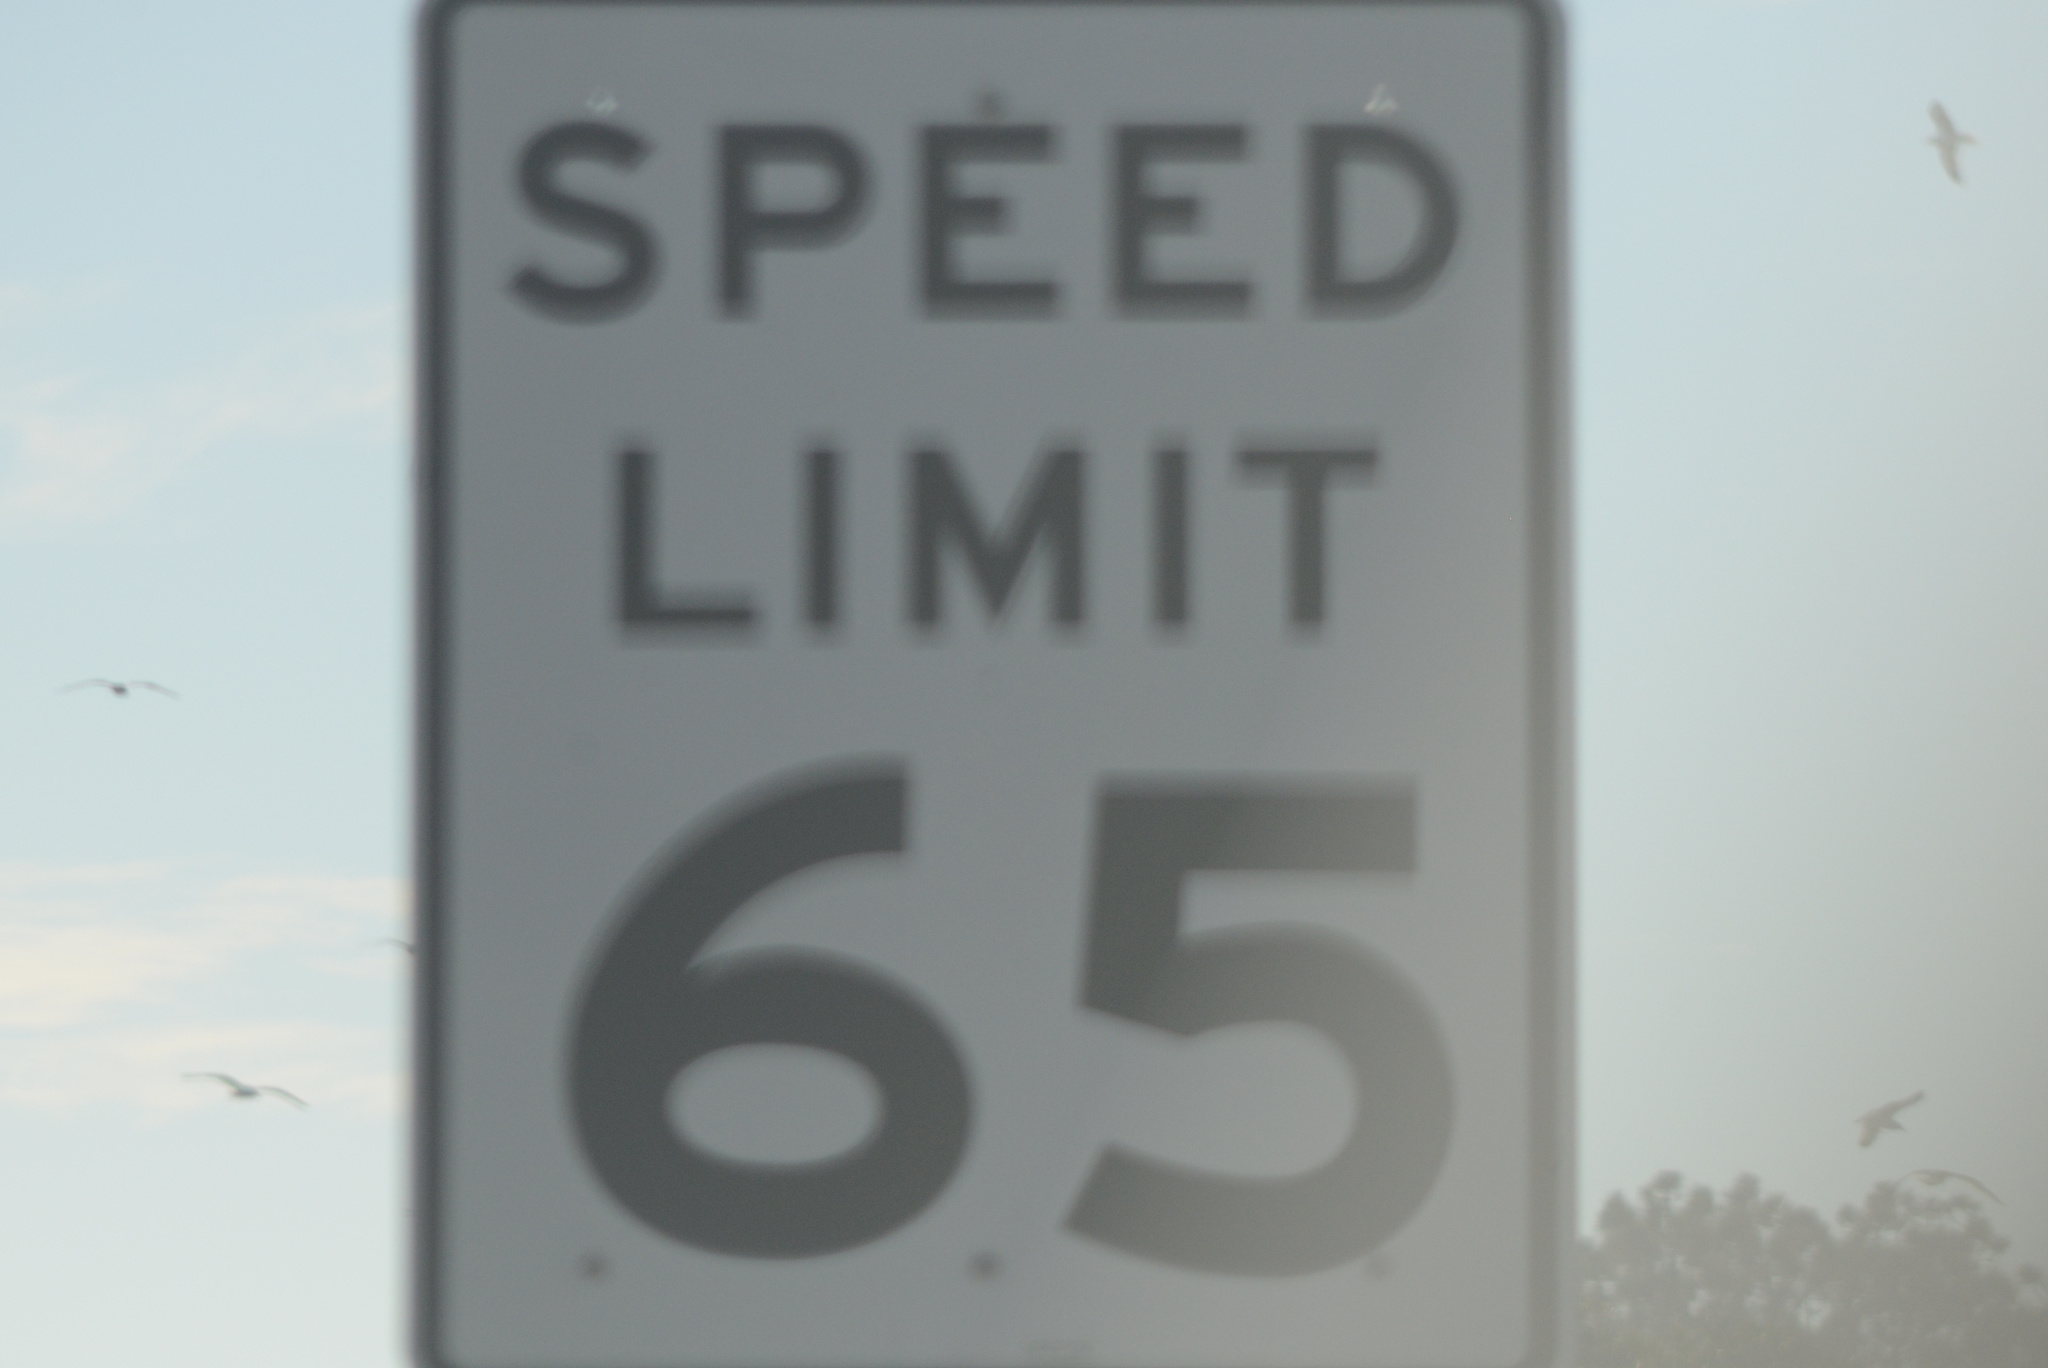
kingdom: Animalia
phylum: Chordata
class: Aves
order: Charadriiformes
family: Laridae
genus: Larus
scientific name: Larus
